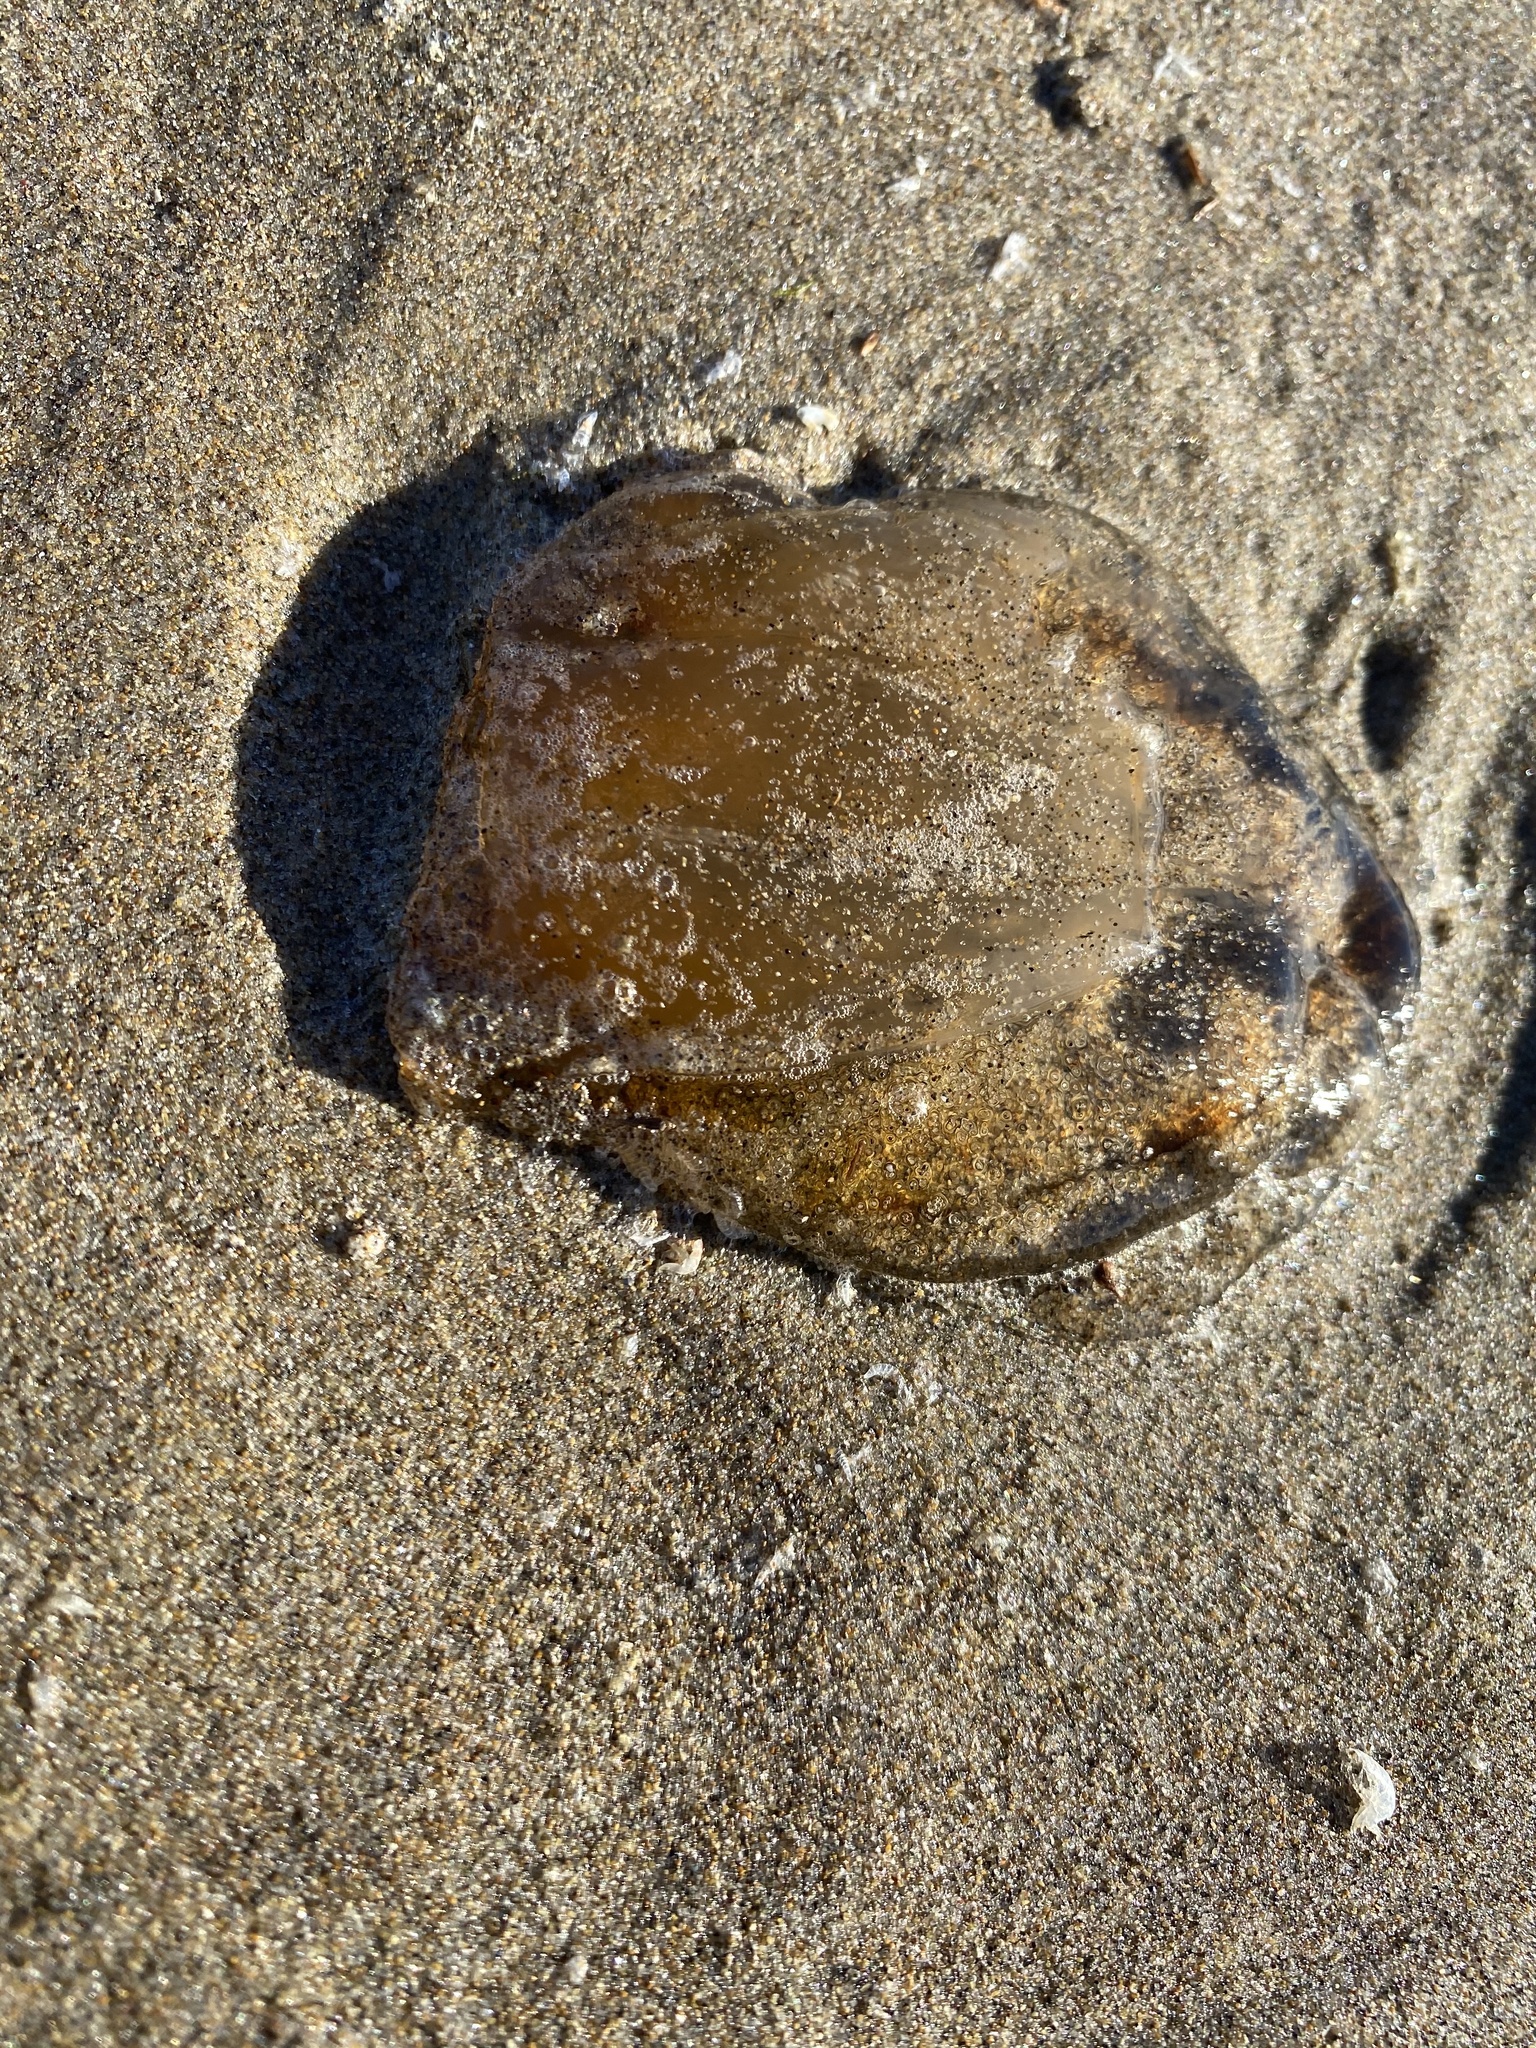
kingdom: Animalia
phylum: Cnidaria
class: Scyphozoa
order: Semaeostomeae
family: Pelagiidae
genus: Chrysaora
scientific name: Chrysaora fuscescens
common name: Sea nettle
